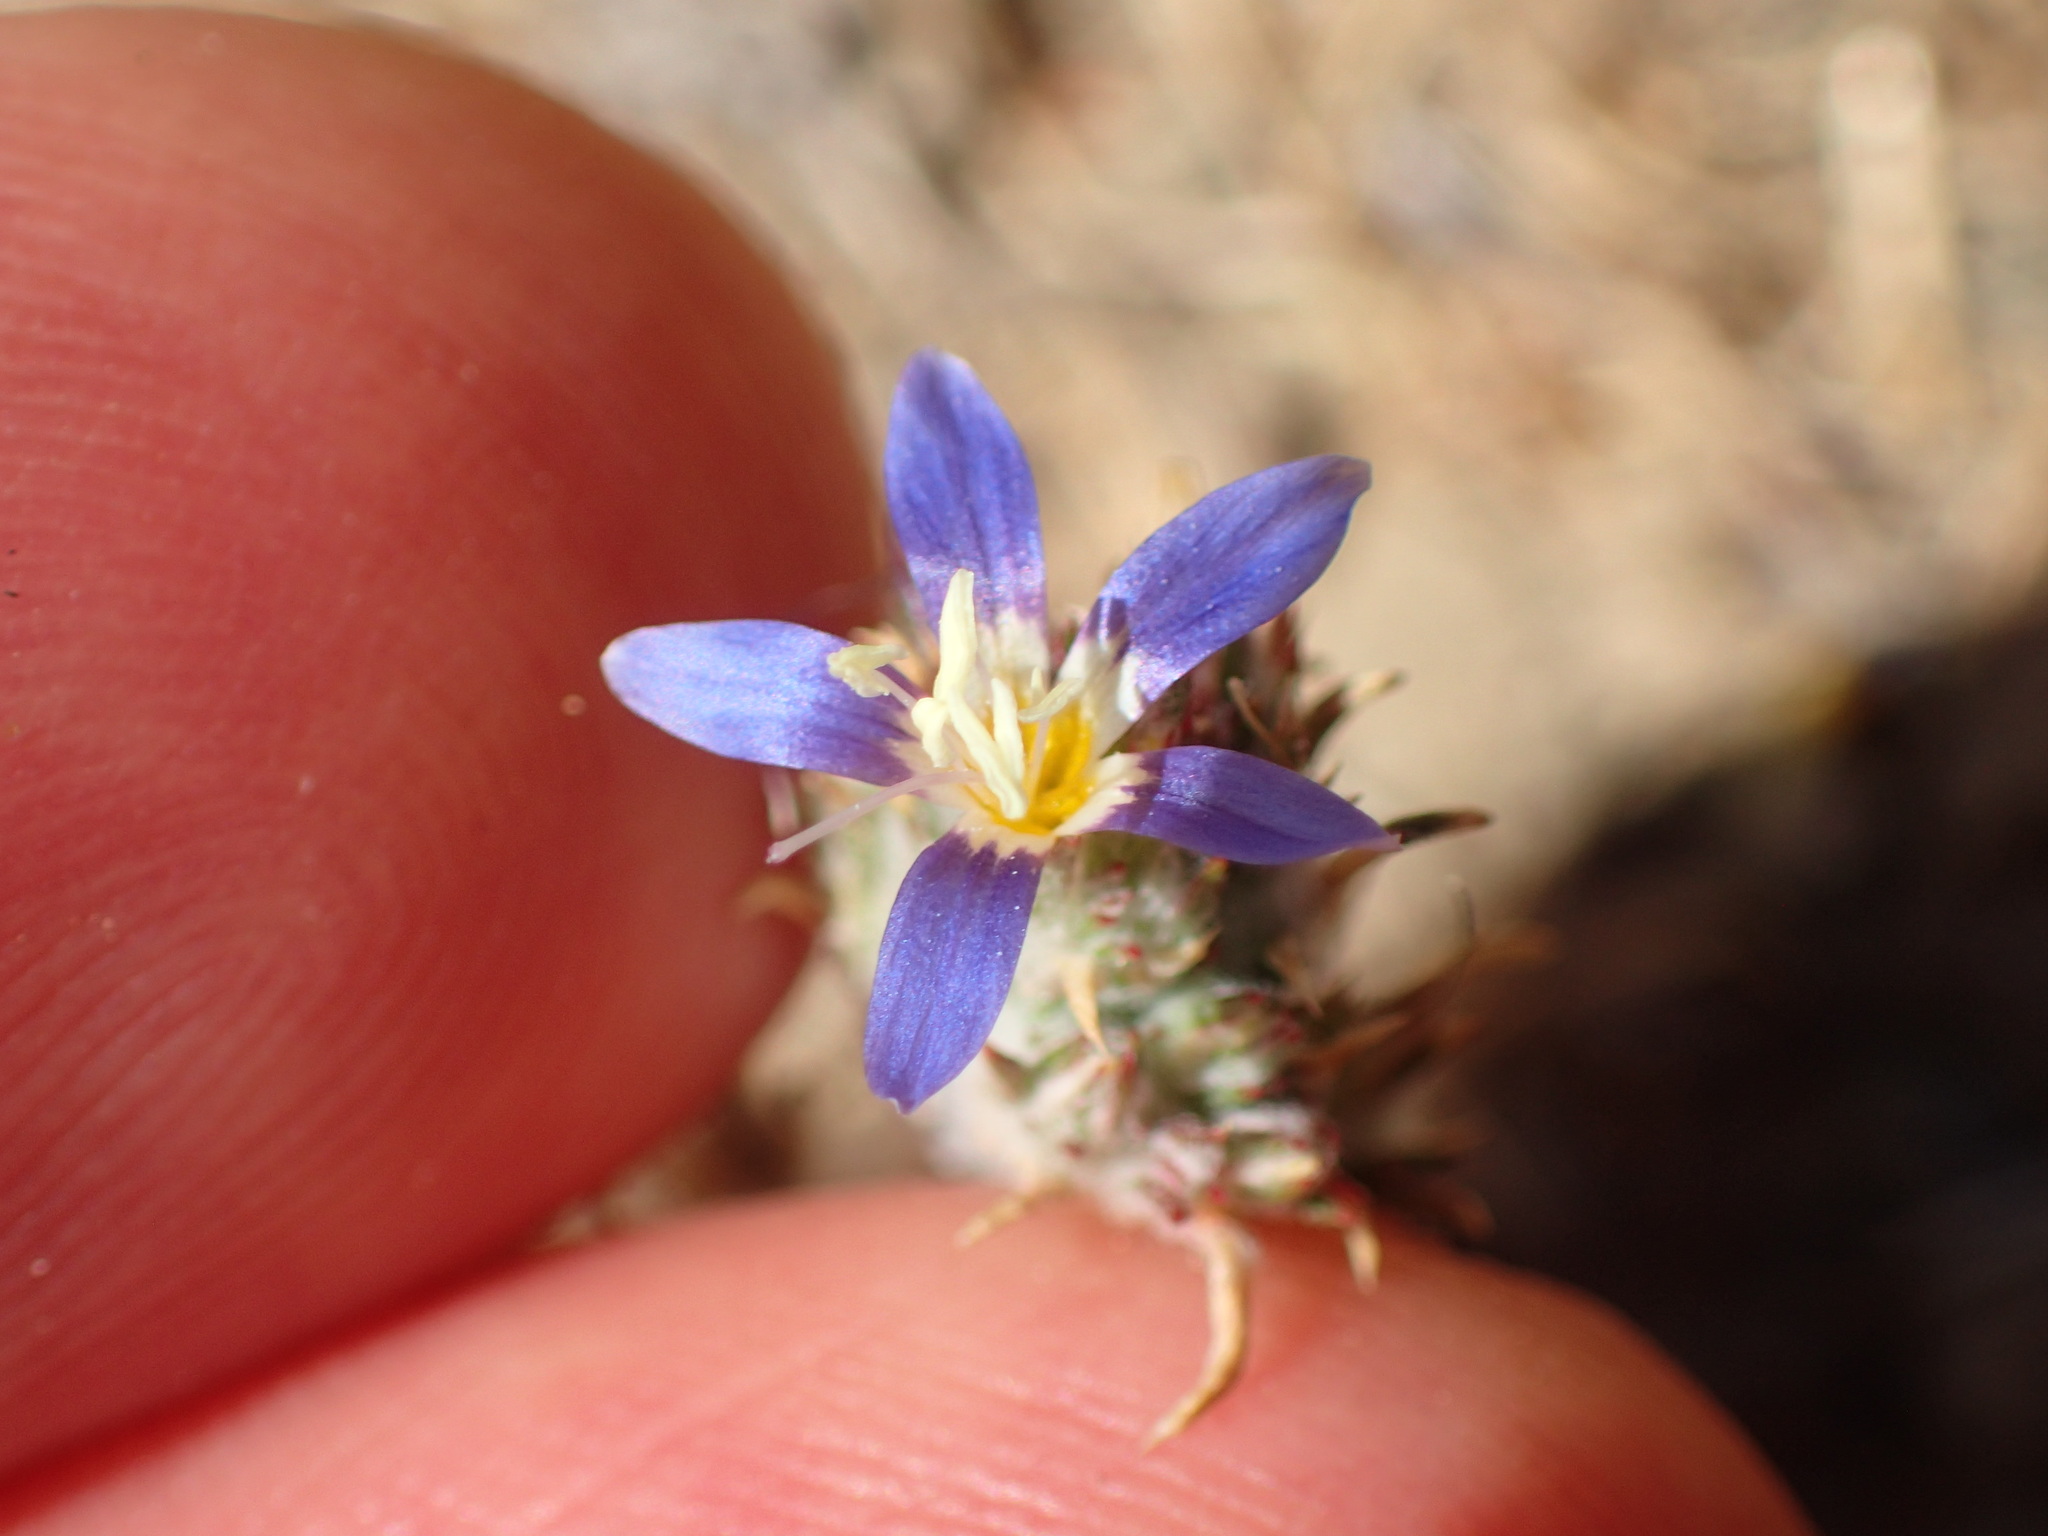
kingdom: Plantae
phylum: Tracheophyta
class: Magnoliopsida
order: Ericales
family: Polemoniaceae
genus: Eriastrum
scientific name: Eriastrum sapphirinum
